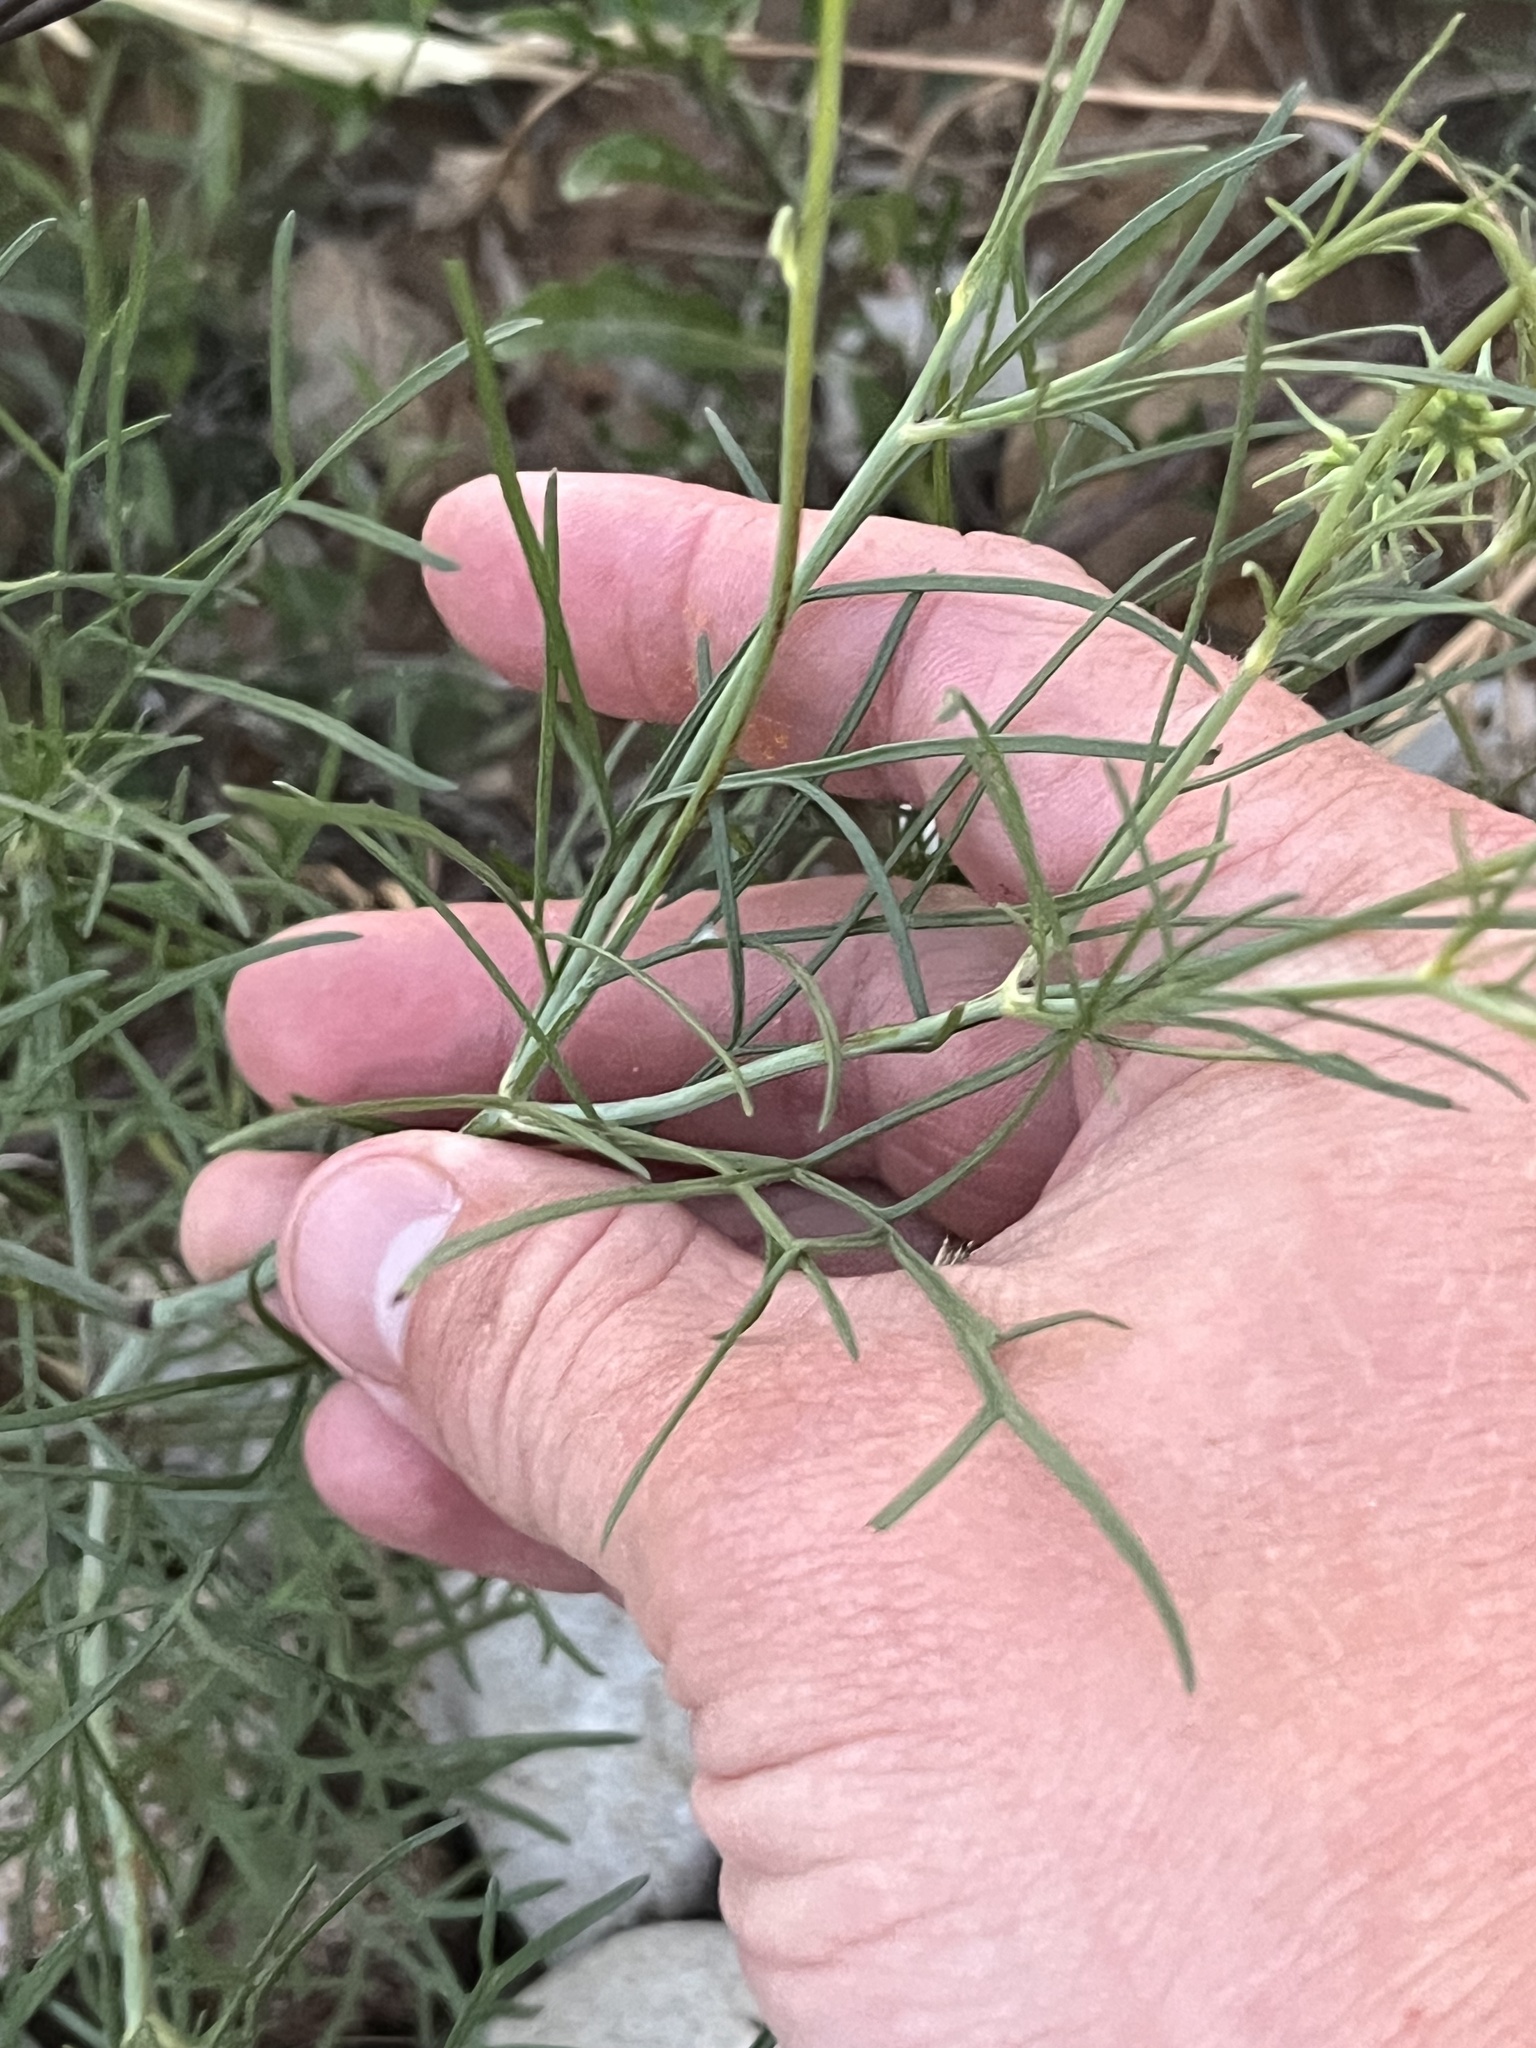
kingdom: Plantae
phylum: Tracheophyta
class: Magnoliopsida
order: Asterales
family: Asteraceae
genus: Thelesperma
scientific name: Thelesperma filifolium
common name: Stiff greenthread
